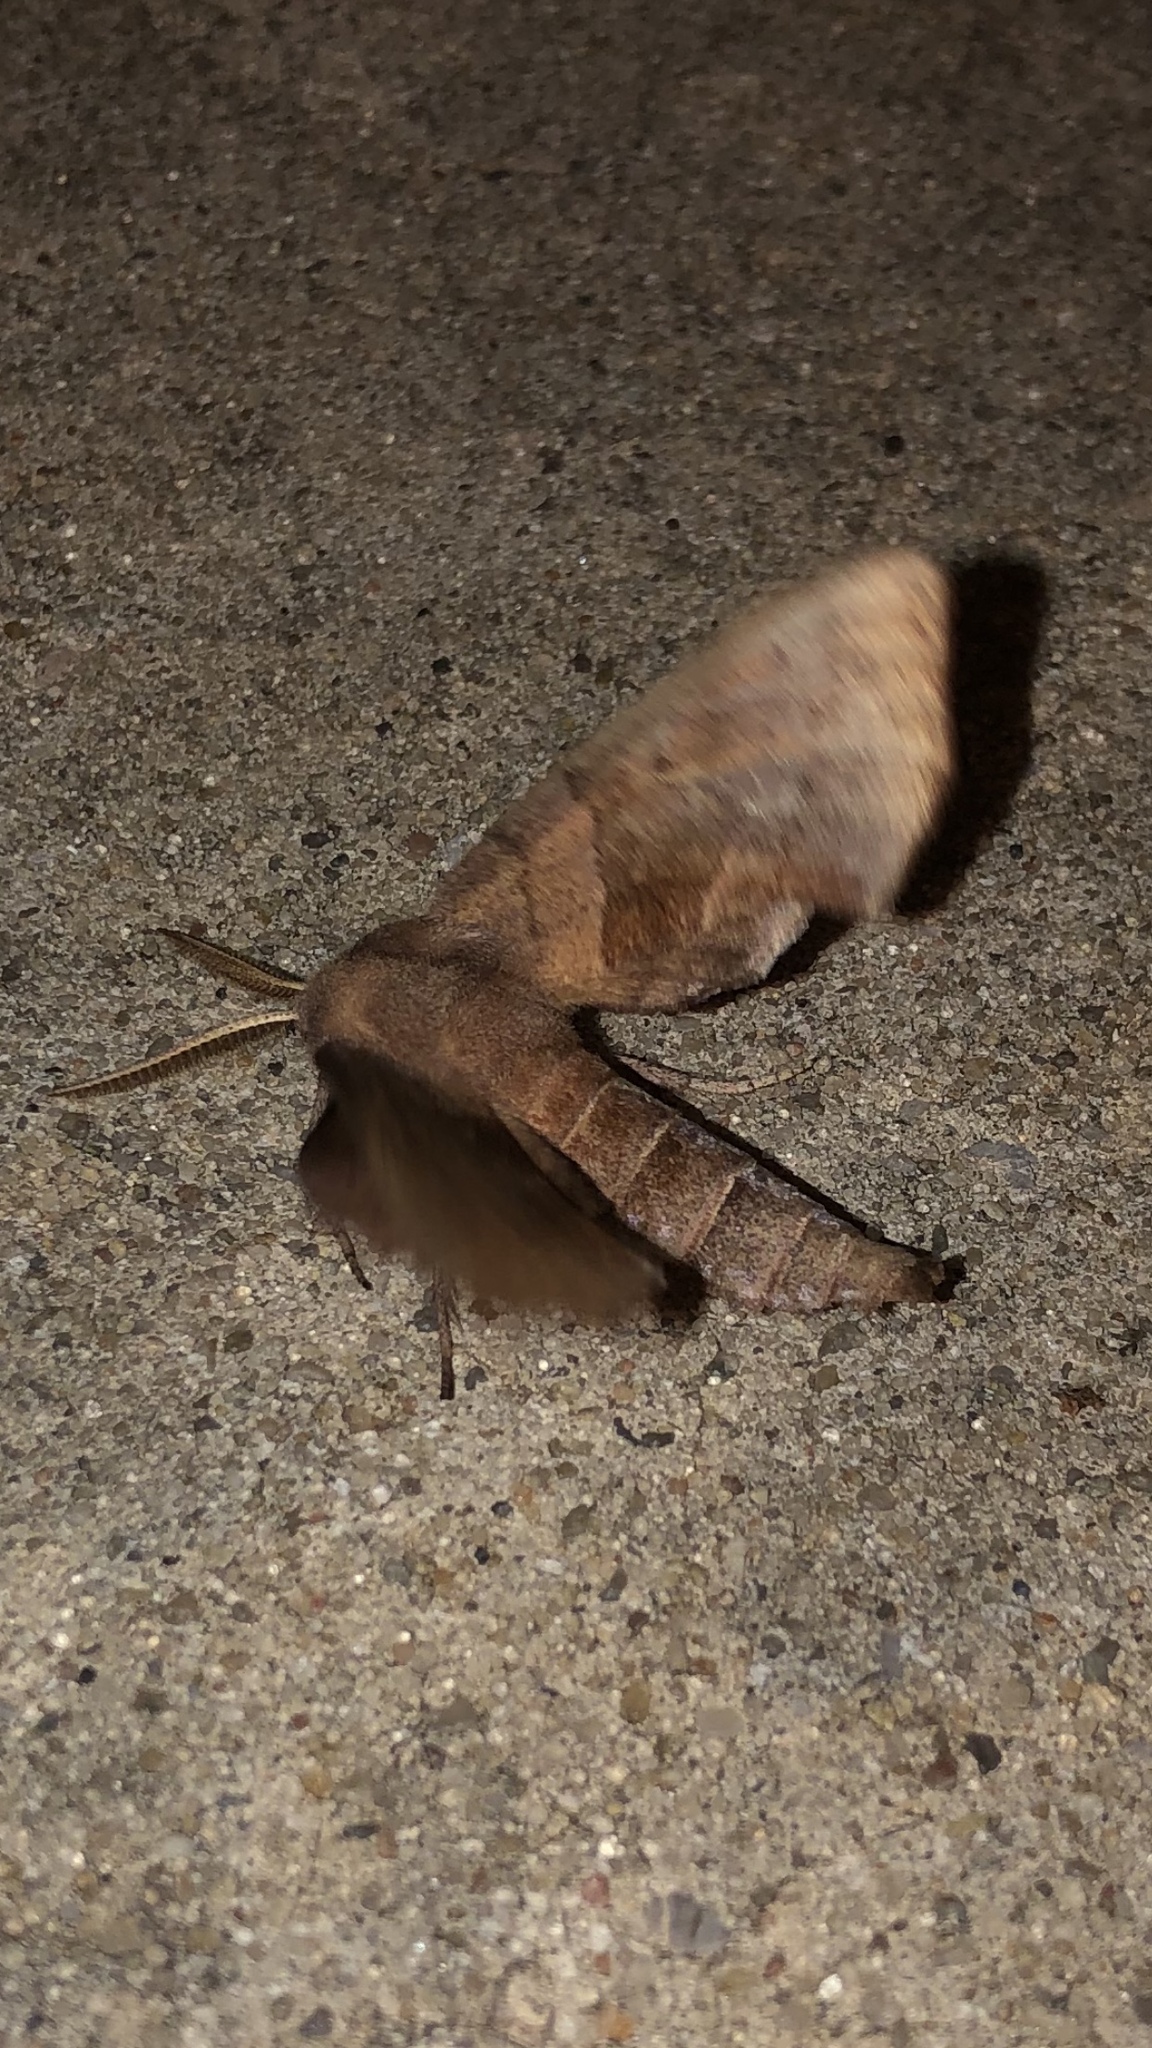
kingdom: Animalia
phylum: Arthropoda
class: Insecta
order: Lepidoptera
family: Sphingidae
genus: Amorpha
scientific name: Amorpha juglandis
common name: Walnut sphinx
